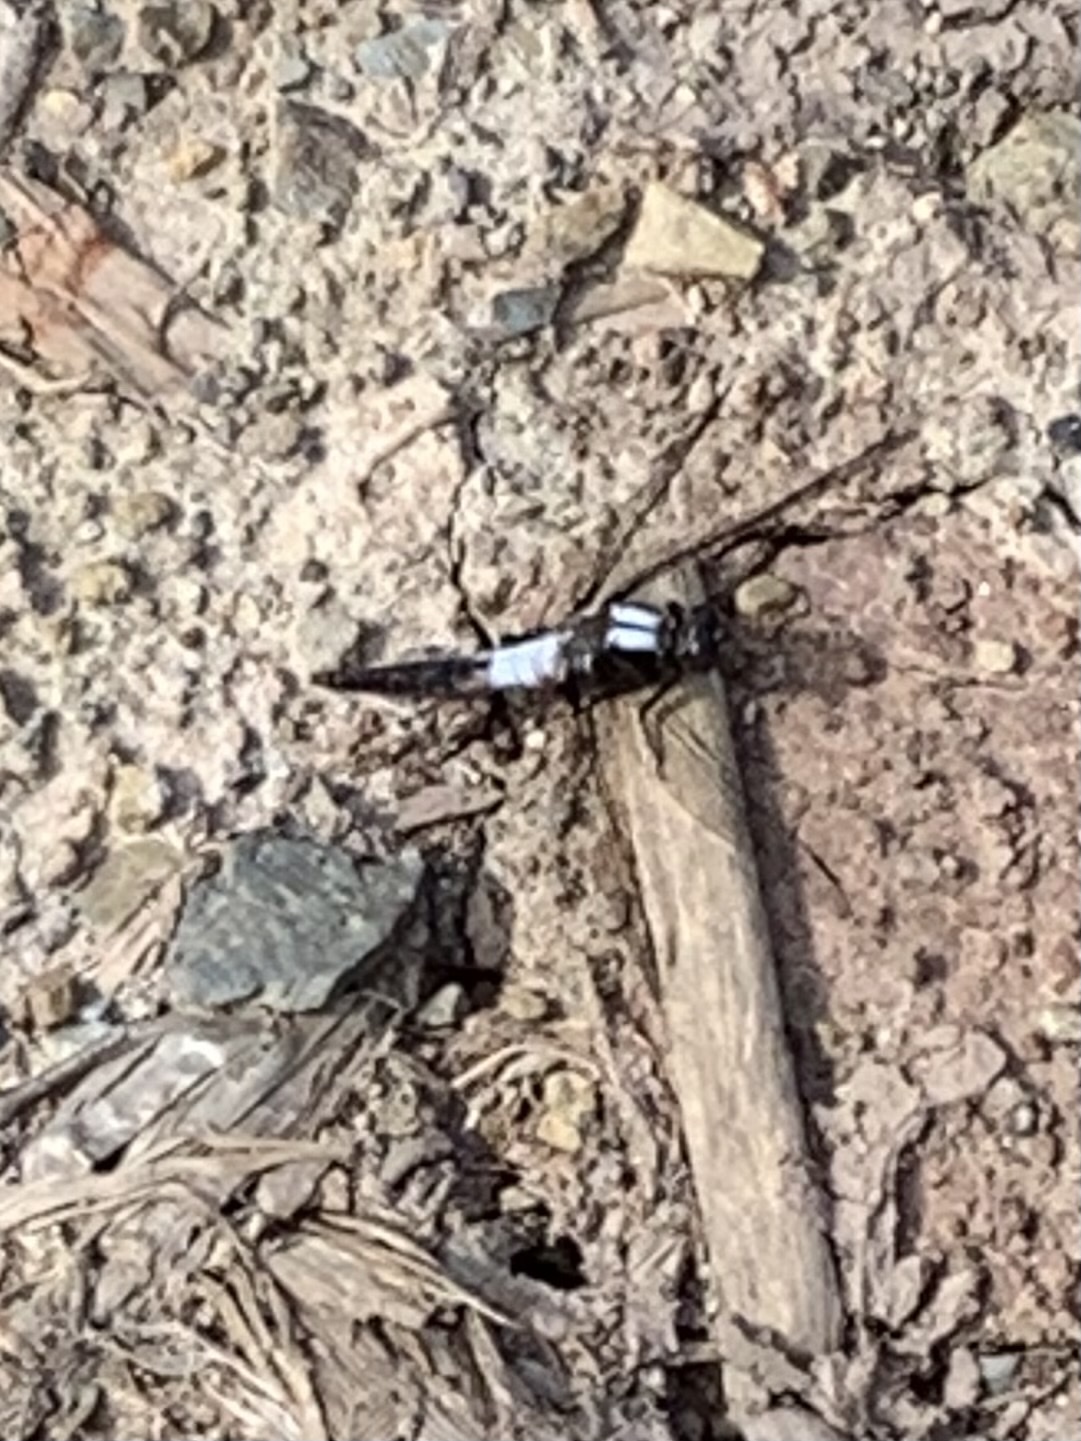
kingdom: Animalia
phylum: Arthropoda
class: Insecta
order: Odonata
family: Libellulidae
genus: Ladona
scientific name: Ladona julia
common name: Chalk-fronted corporal
